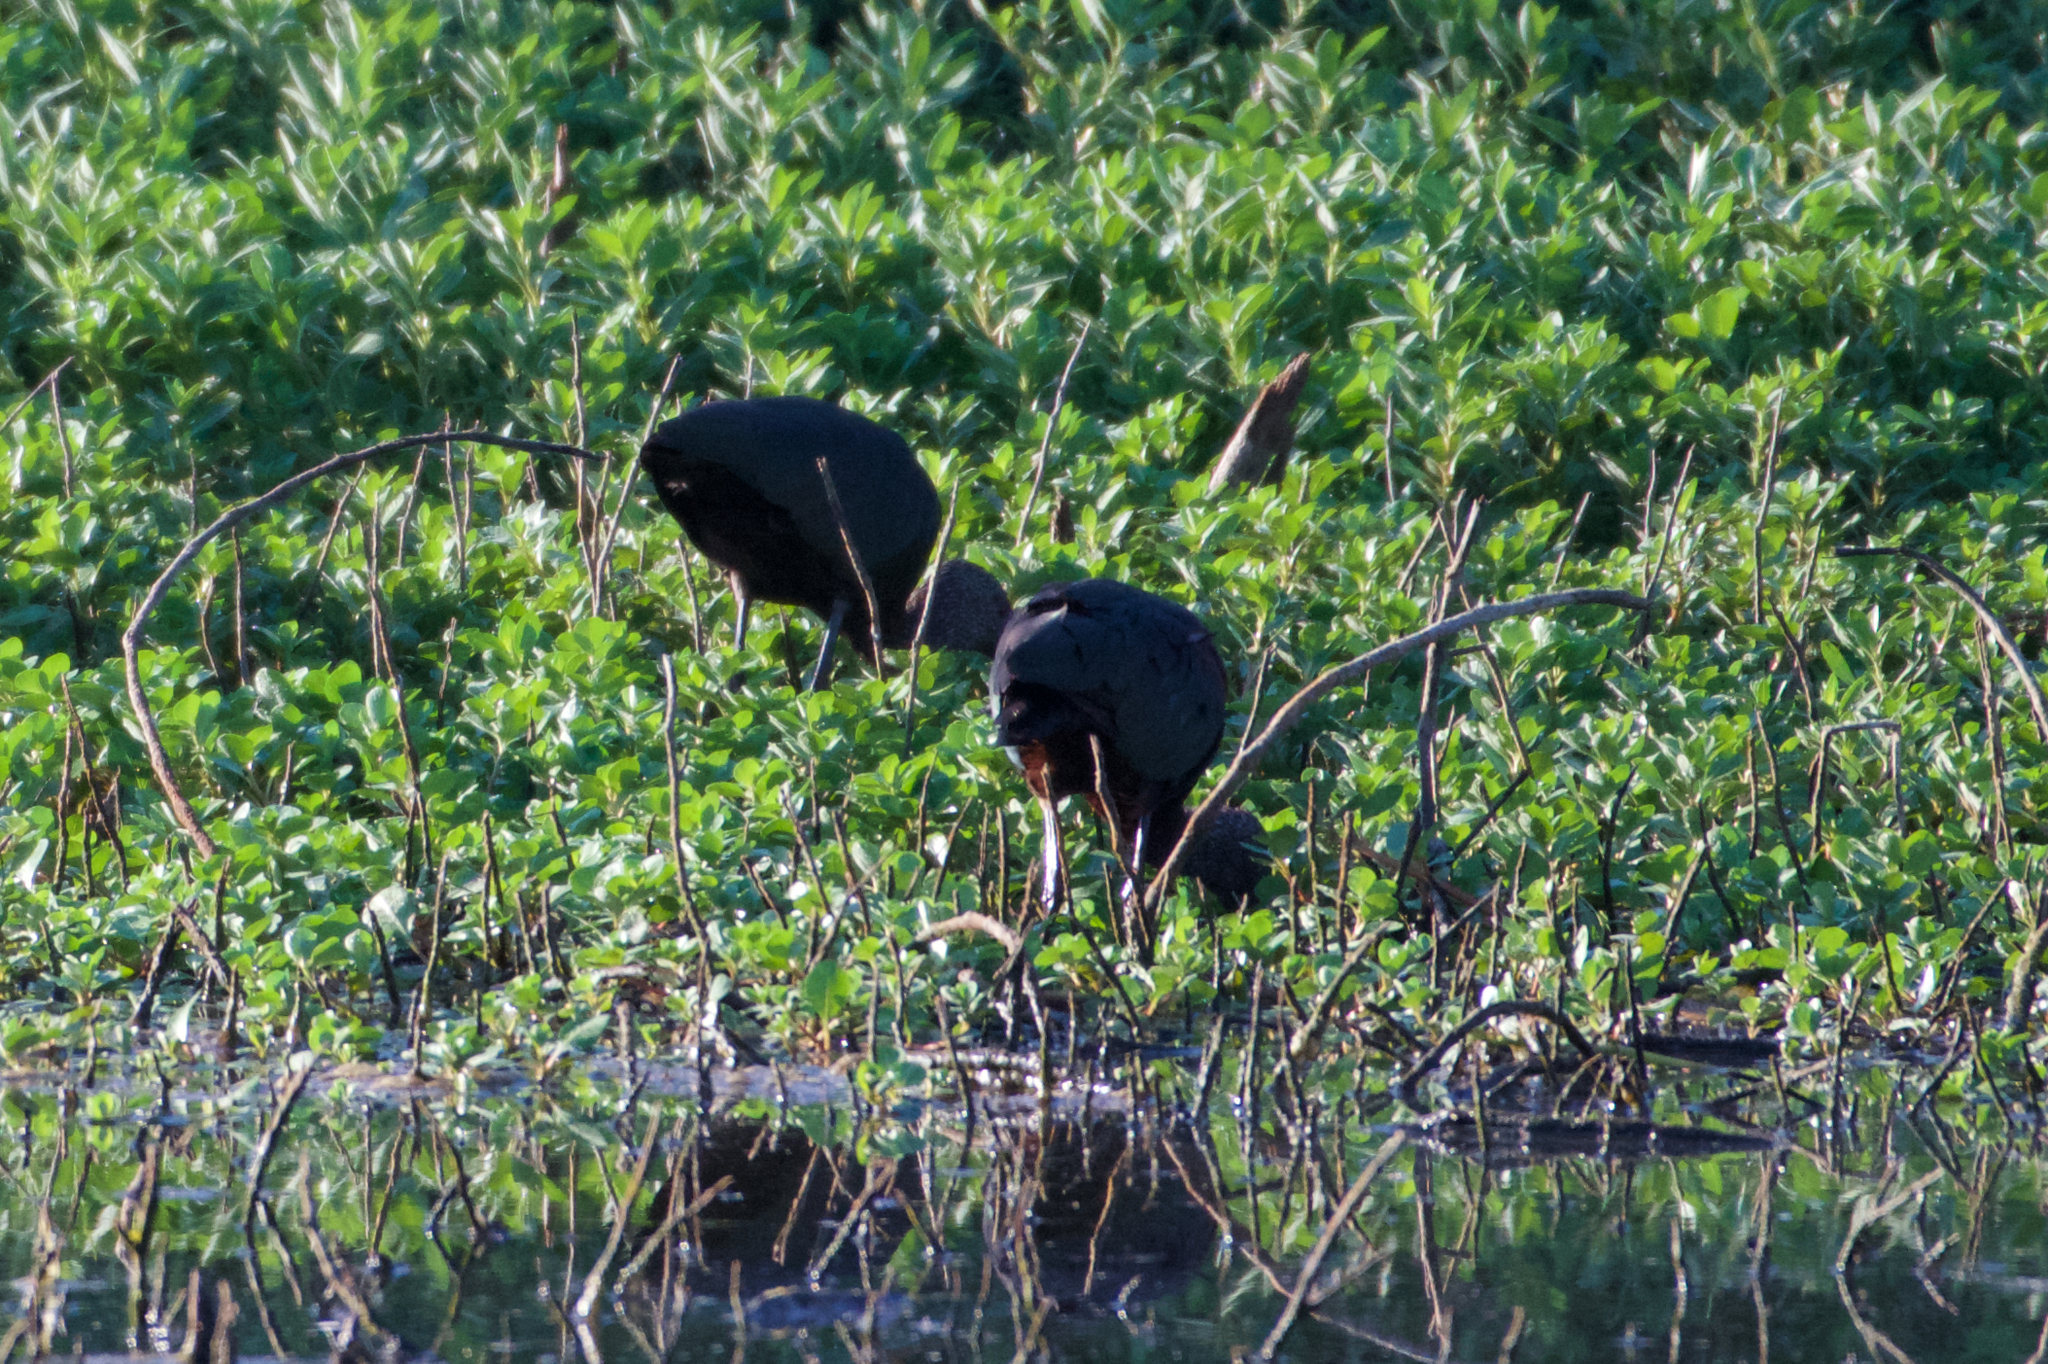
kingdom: Animalia
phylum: Chordata
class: Aves
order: Pelecaniformes
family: Threskiornithidae
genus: Plegadis
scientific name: Plegadis chihi
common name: White-faced ibis
